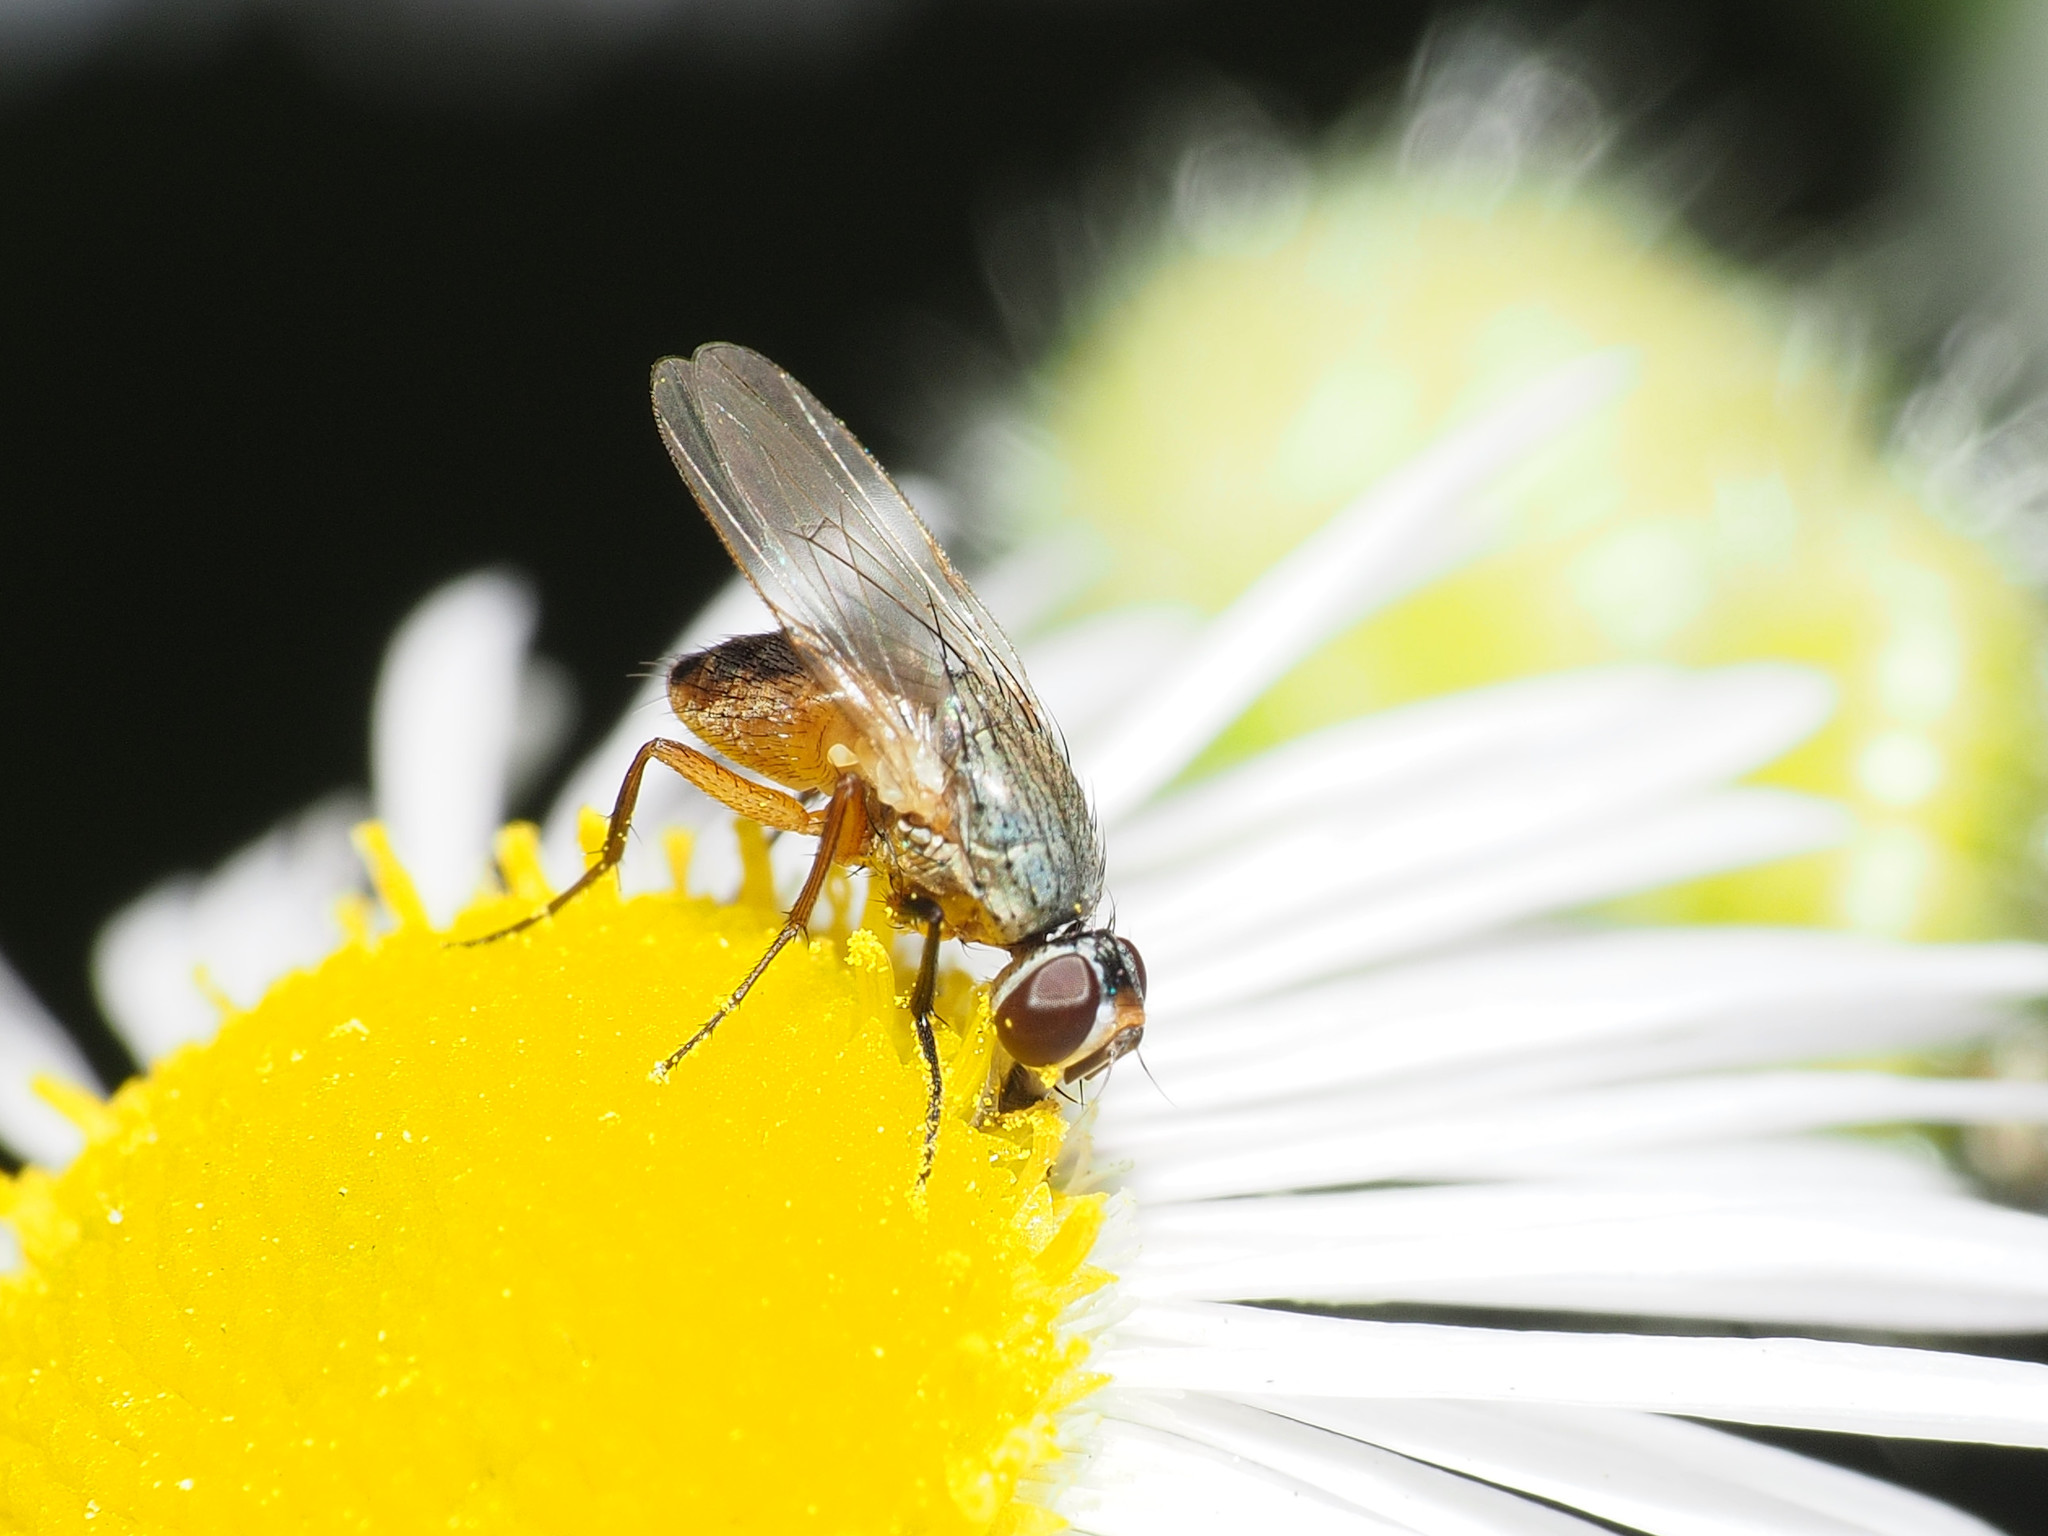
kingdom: Animalia
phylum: Arthropoda
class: Insecta
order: Diptera
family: Muscidae
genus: Atherigona
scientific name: Atherigona reversura
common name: Bermudagrass stem maggot
